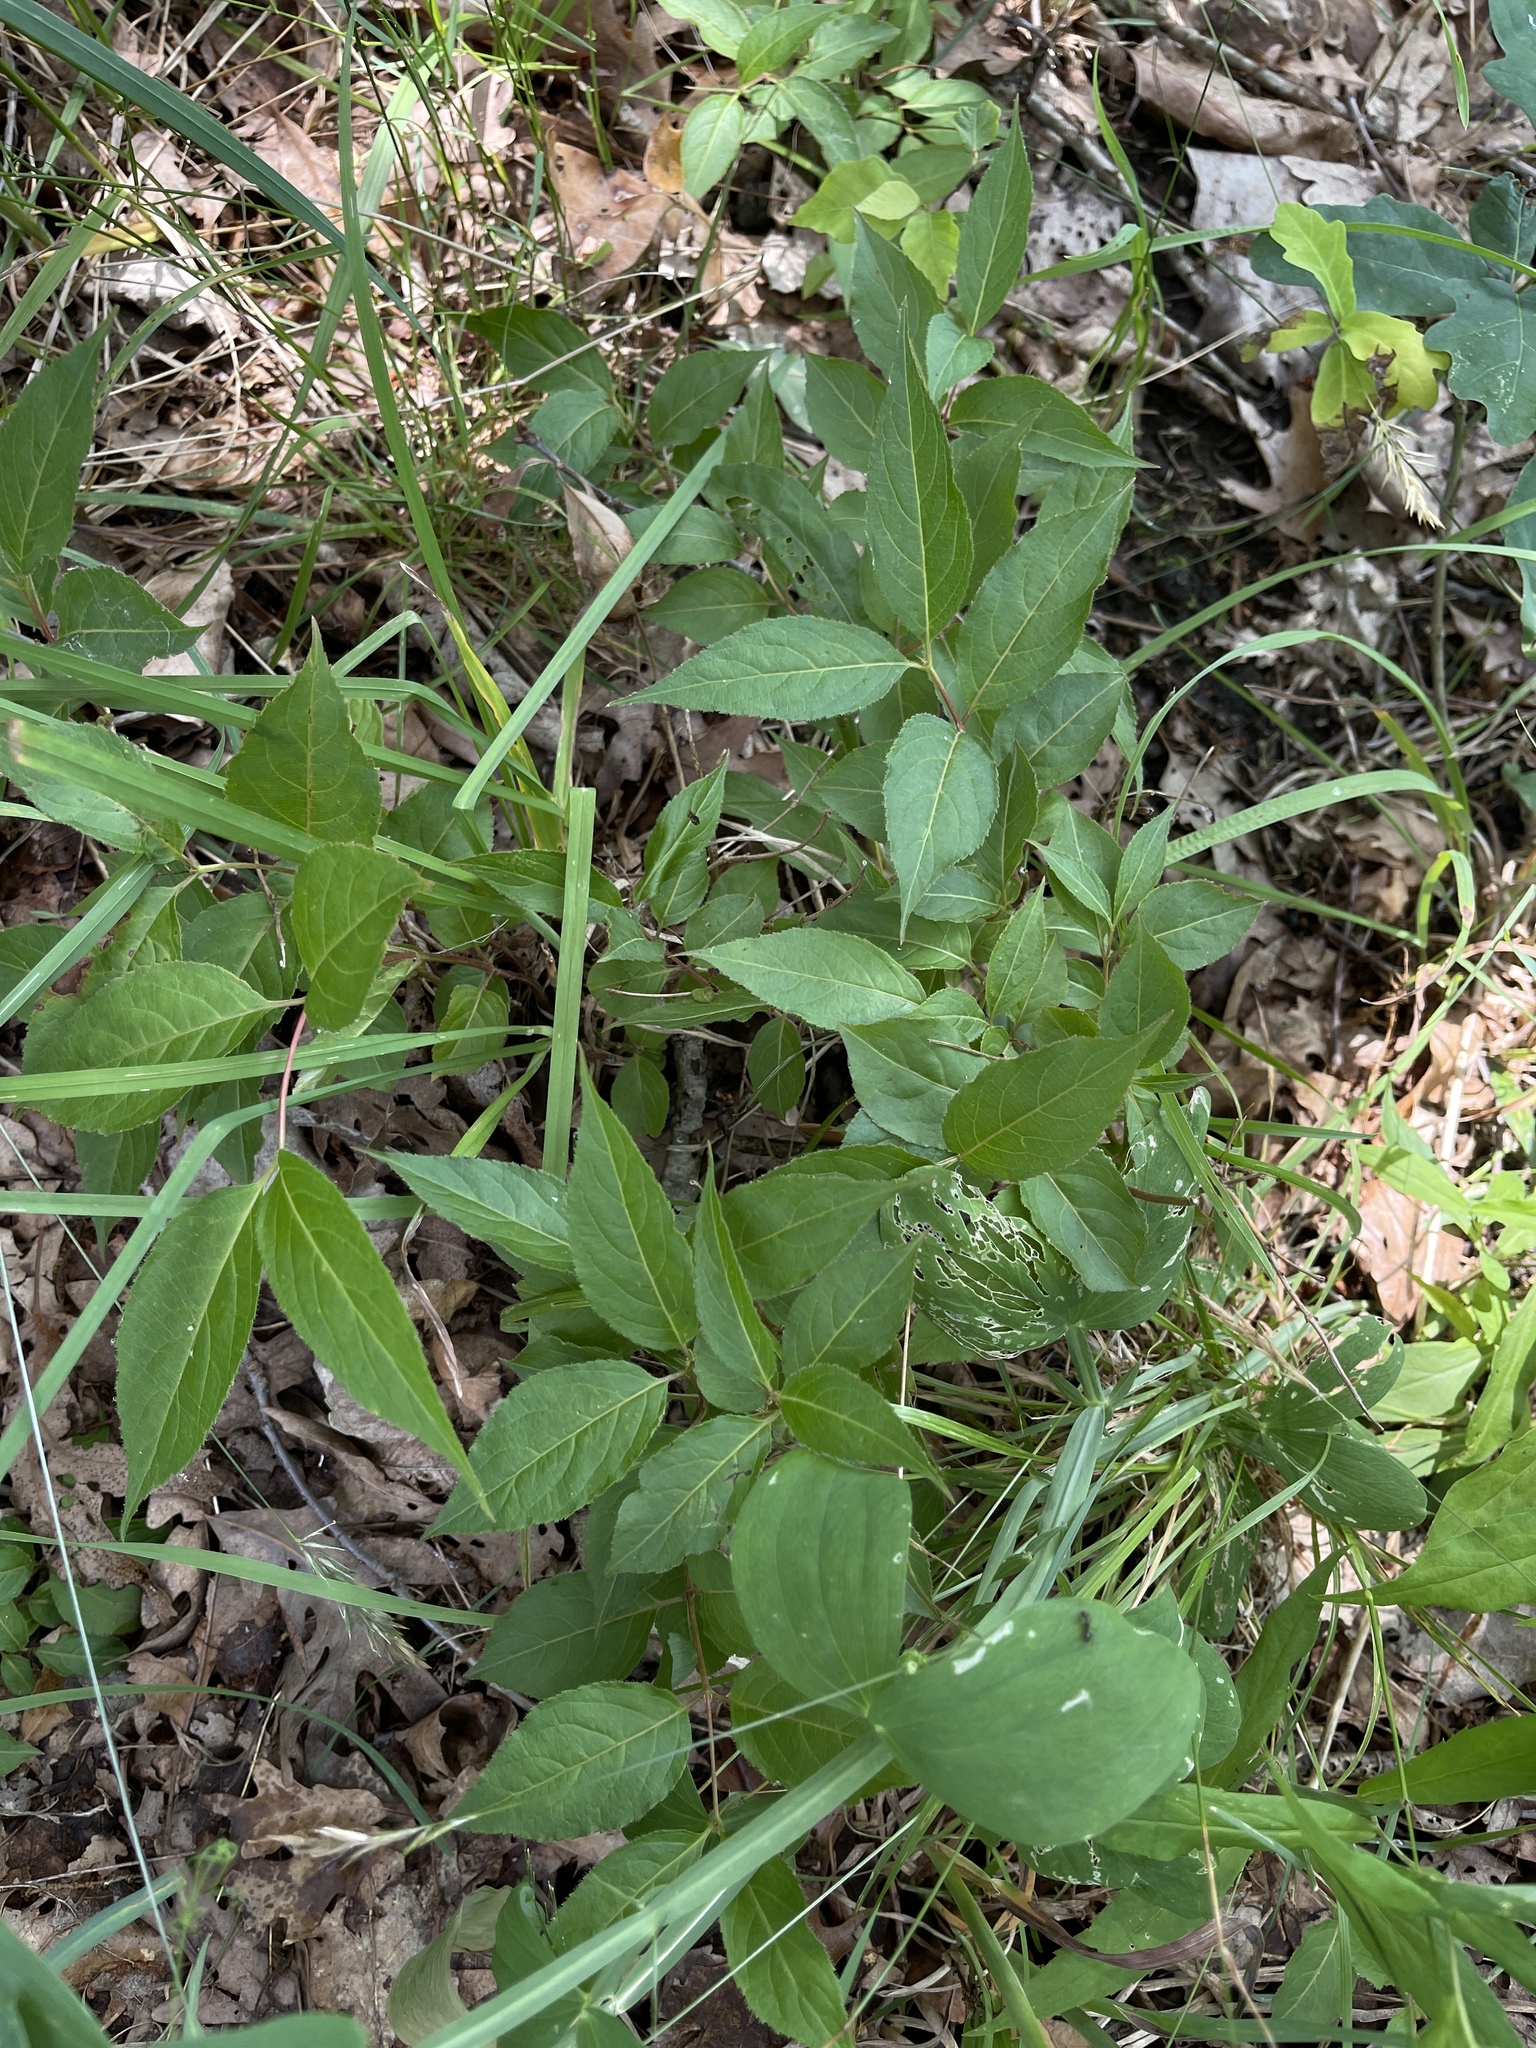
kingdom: Plantae
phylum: Tracheophyta
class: Magnoliopsida
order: Dipsacales
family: Caprifoliaceae
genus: Diervilla
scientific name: Diervilla lonicera
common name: Bush-honeysuckle
